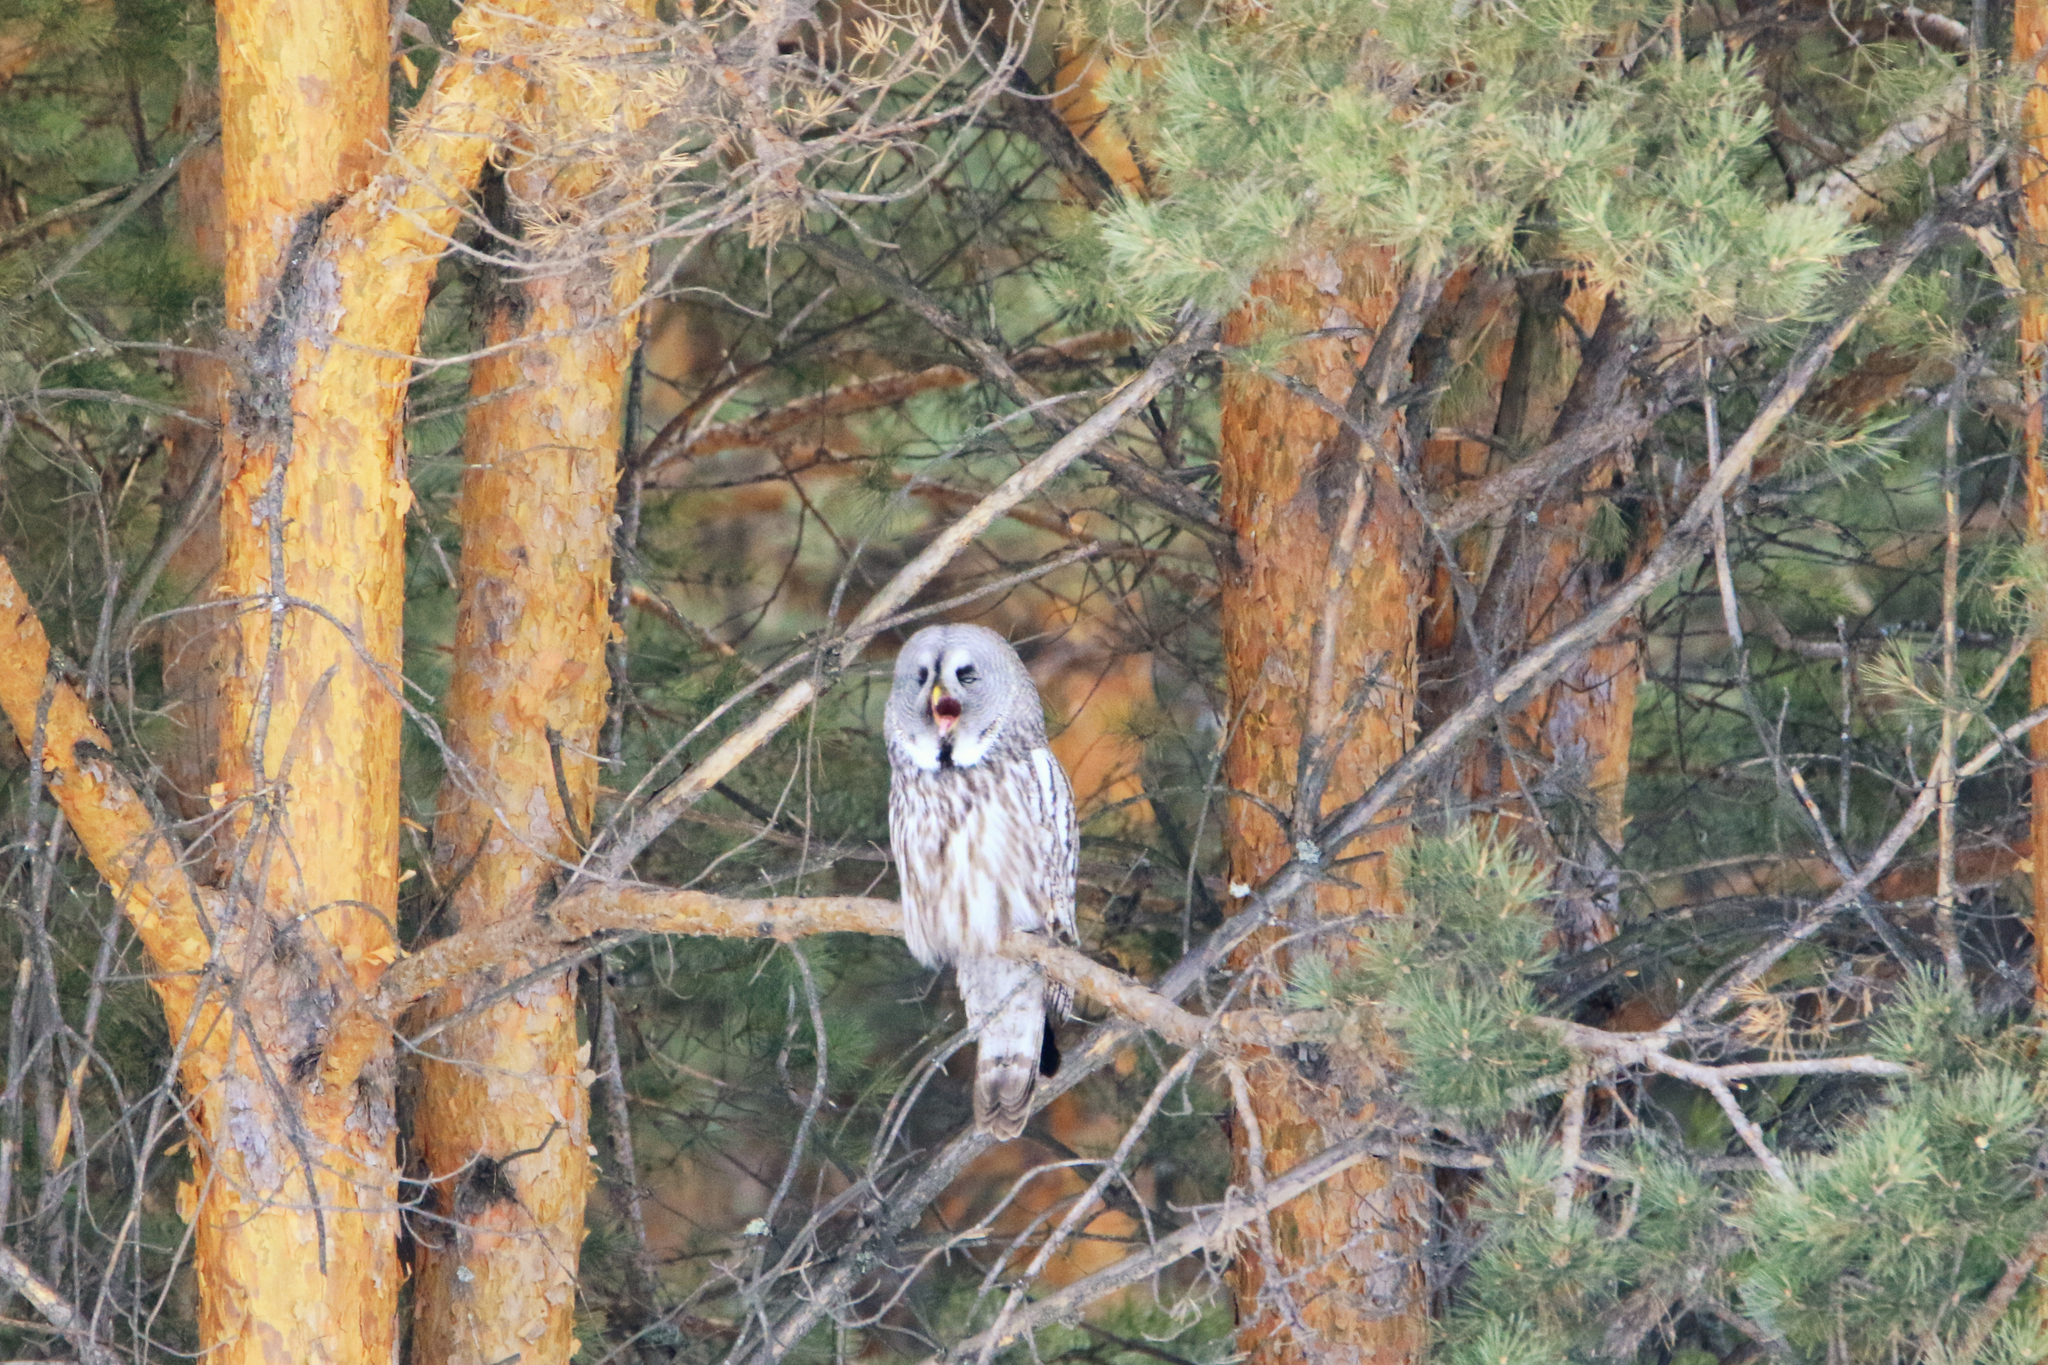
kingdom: Animalia
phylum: Chordata
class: Aves
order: Strigiformes
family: Strigidae
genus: Strix
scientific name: Strix nebulosa
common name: Great grey owl
